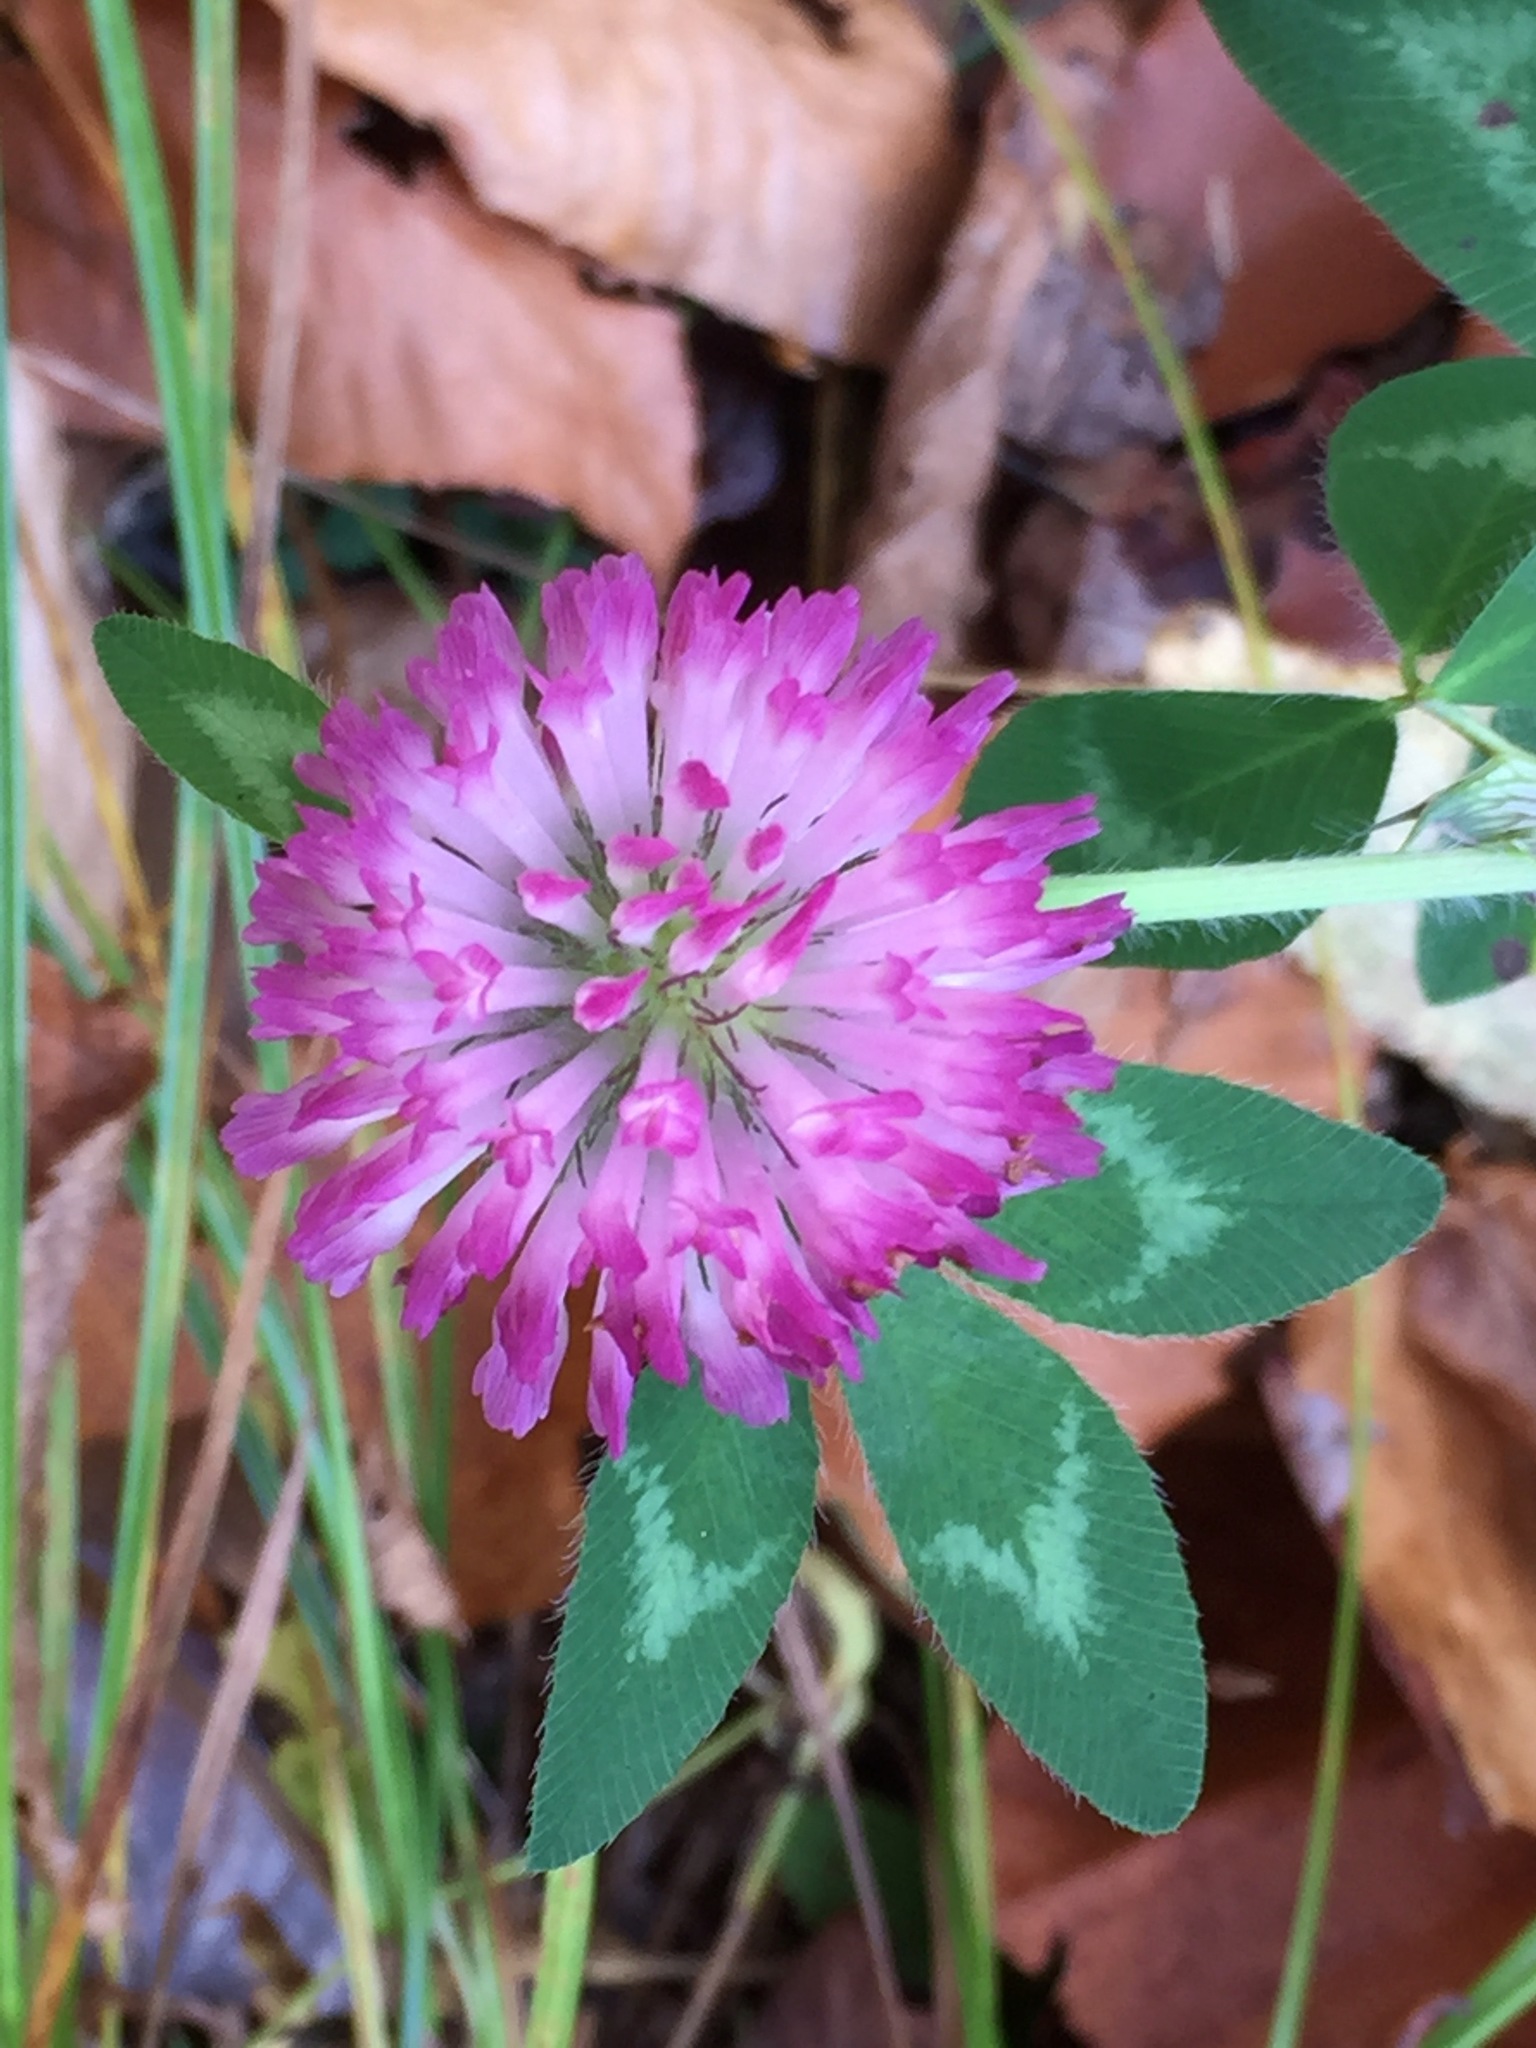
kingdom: Plantae
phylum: Tracheophyta
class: Magnoliopsida
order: Fabales
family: Fabaceae
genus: Trifolium
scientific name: Trifolium pratense
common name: Red clover
